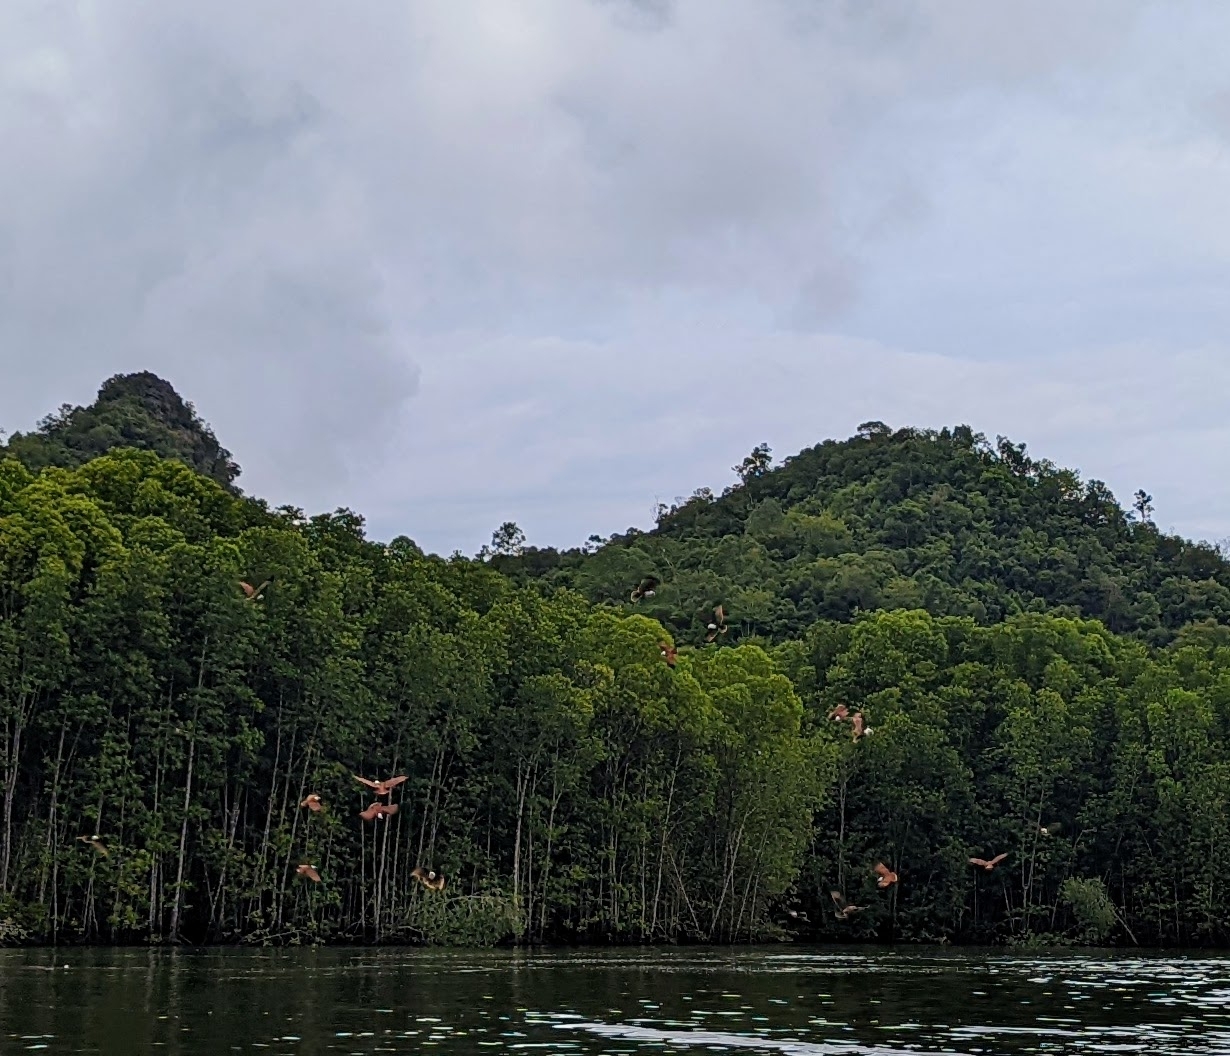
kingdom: Animalia
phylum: Chordata
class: Aves
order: Accipitriformes
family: Accipitridae
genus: Haliastur
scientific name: Haliastur indus
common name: Brahminy kite
